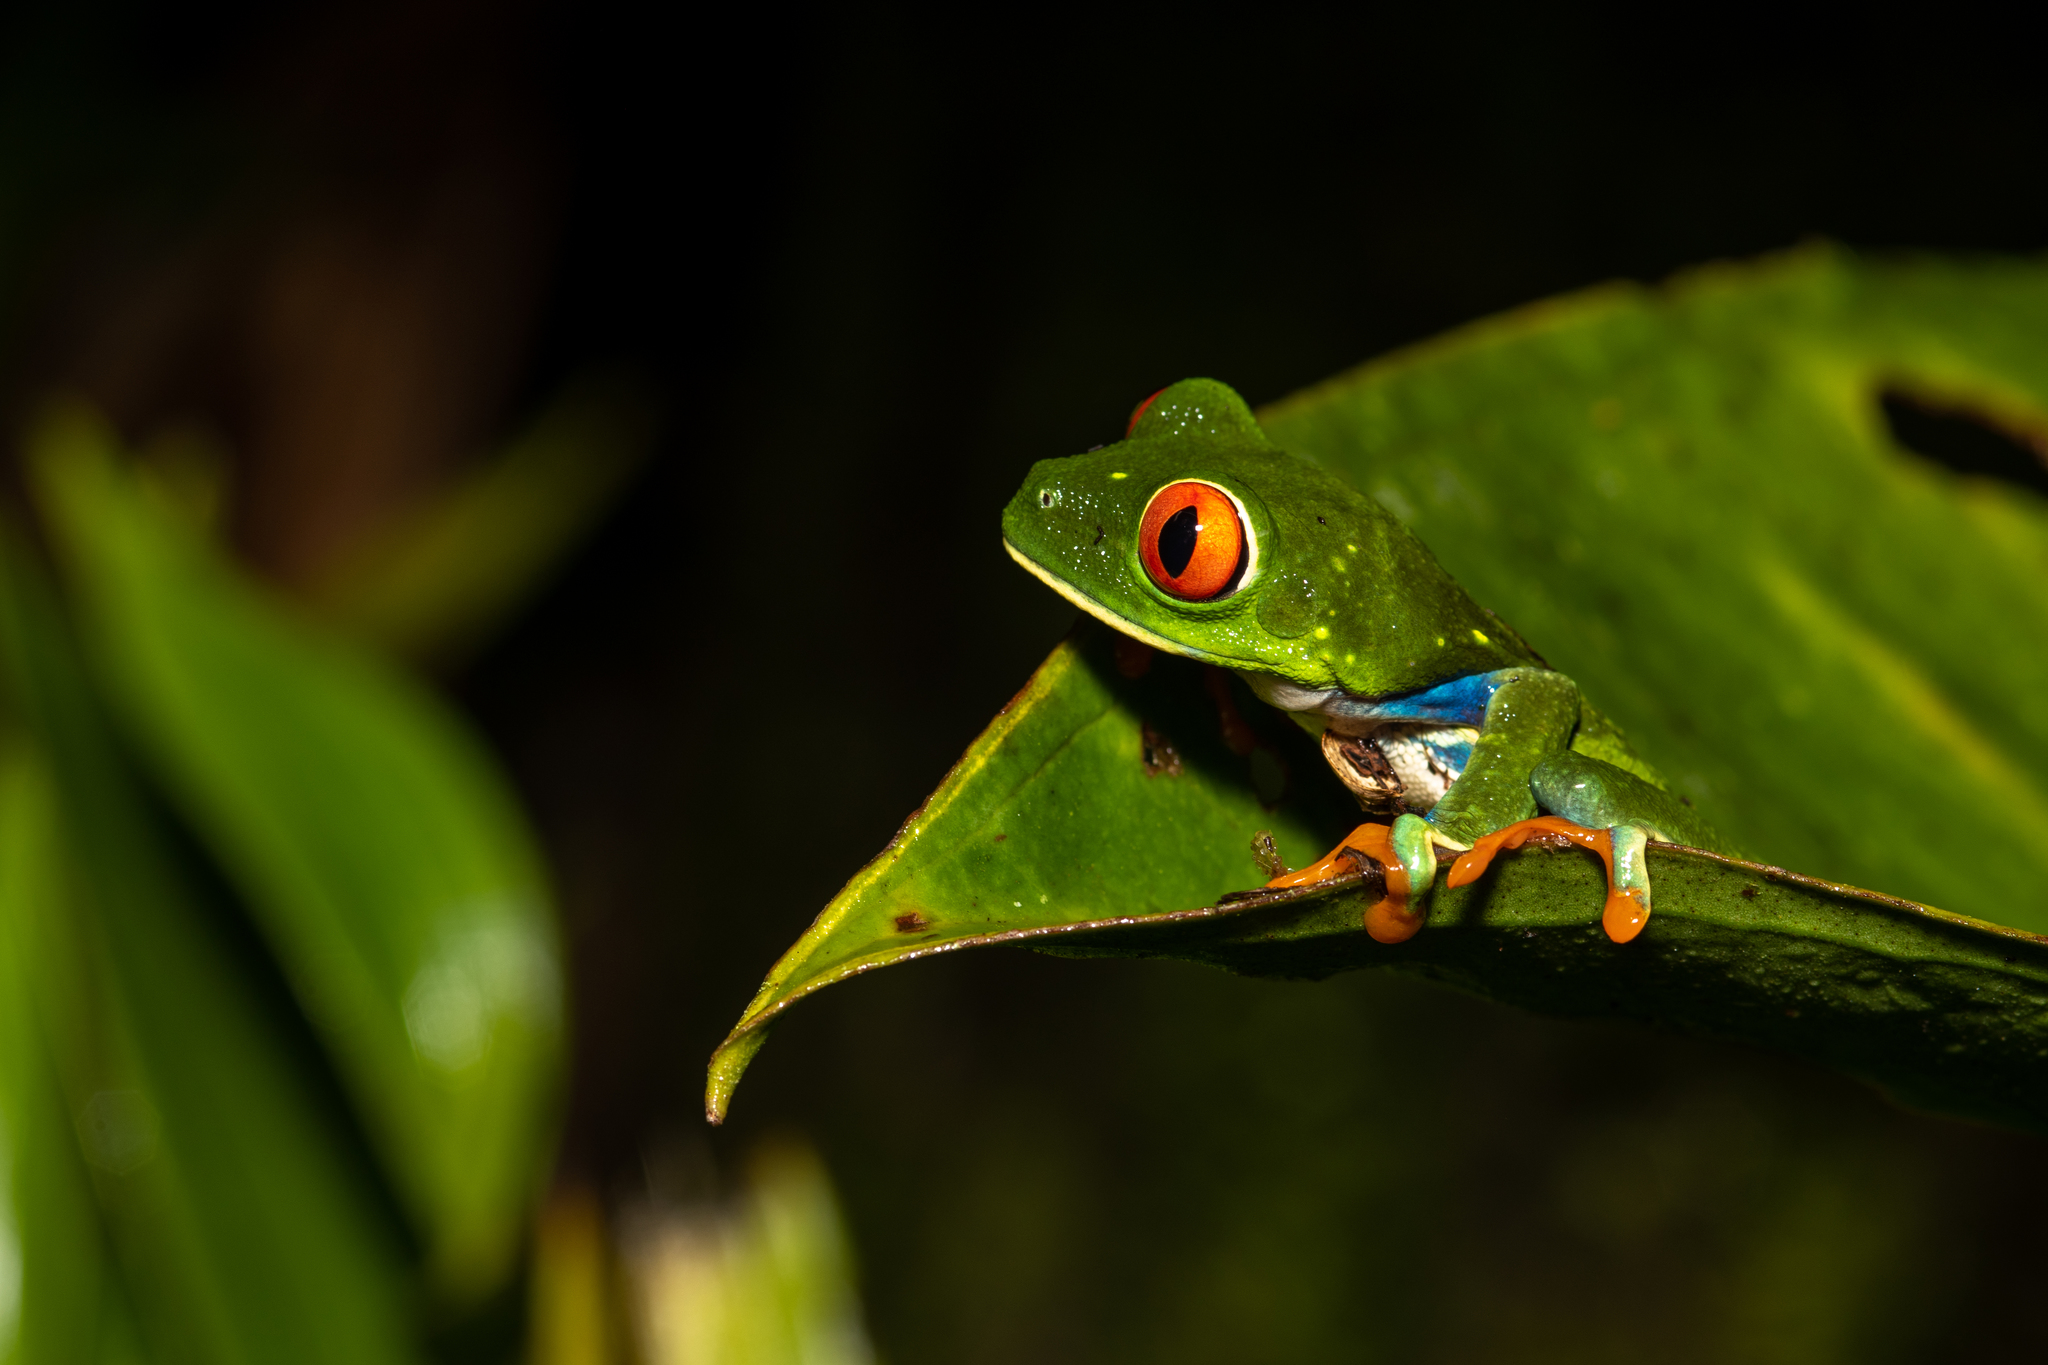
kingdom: Animalia
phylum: Chordata
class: Amphibia
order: Anura
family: Phyllomedusidae
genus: Agalychnis
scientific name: Agalychnis callidryas
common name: Red-eyed treefrog
